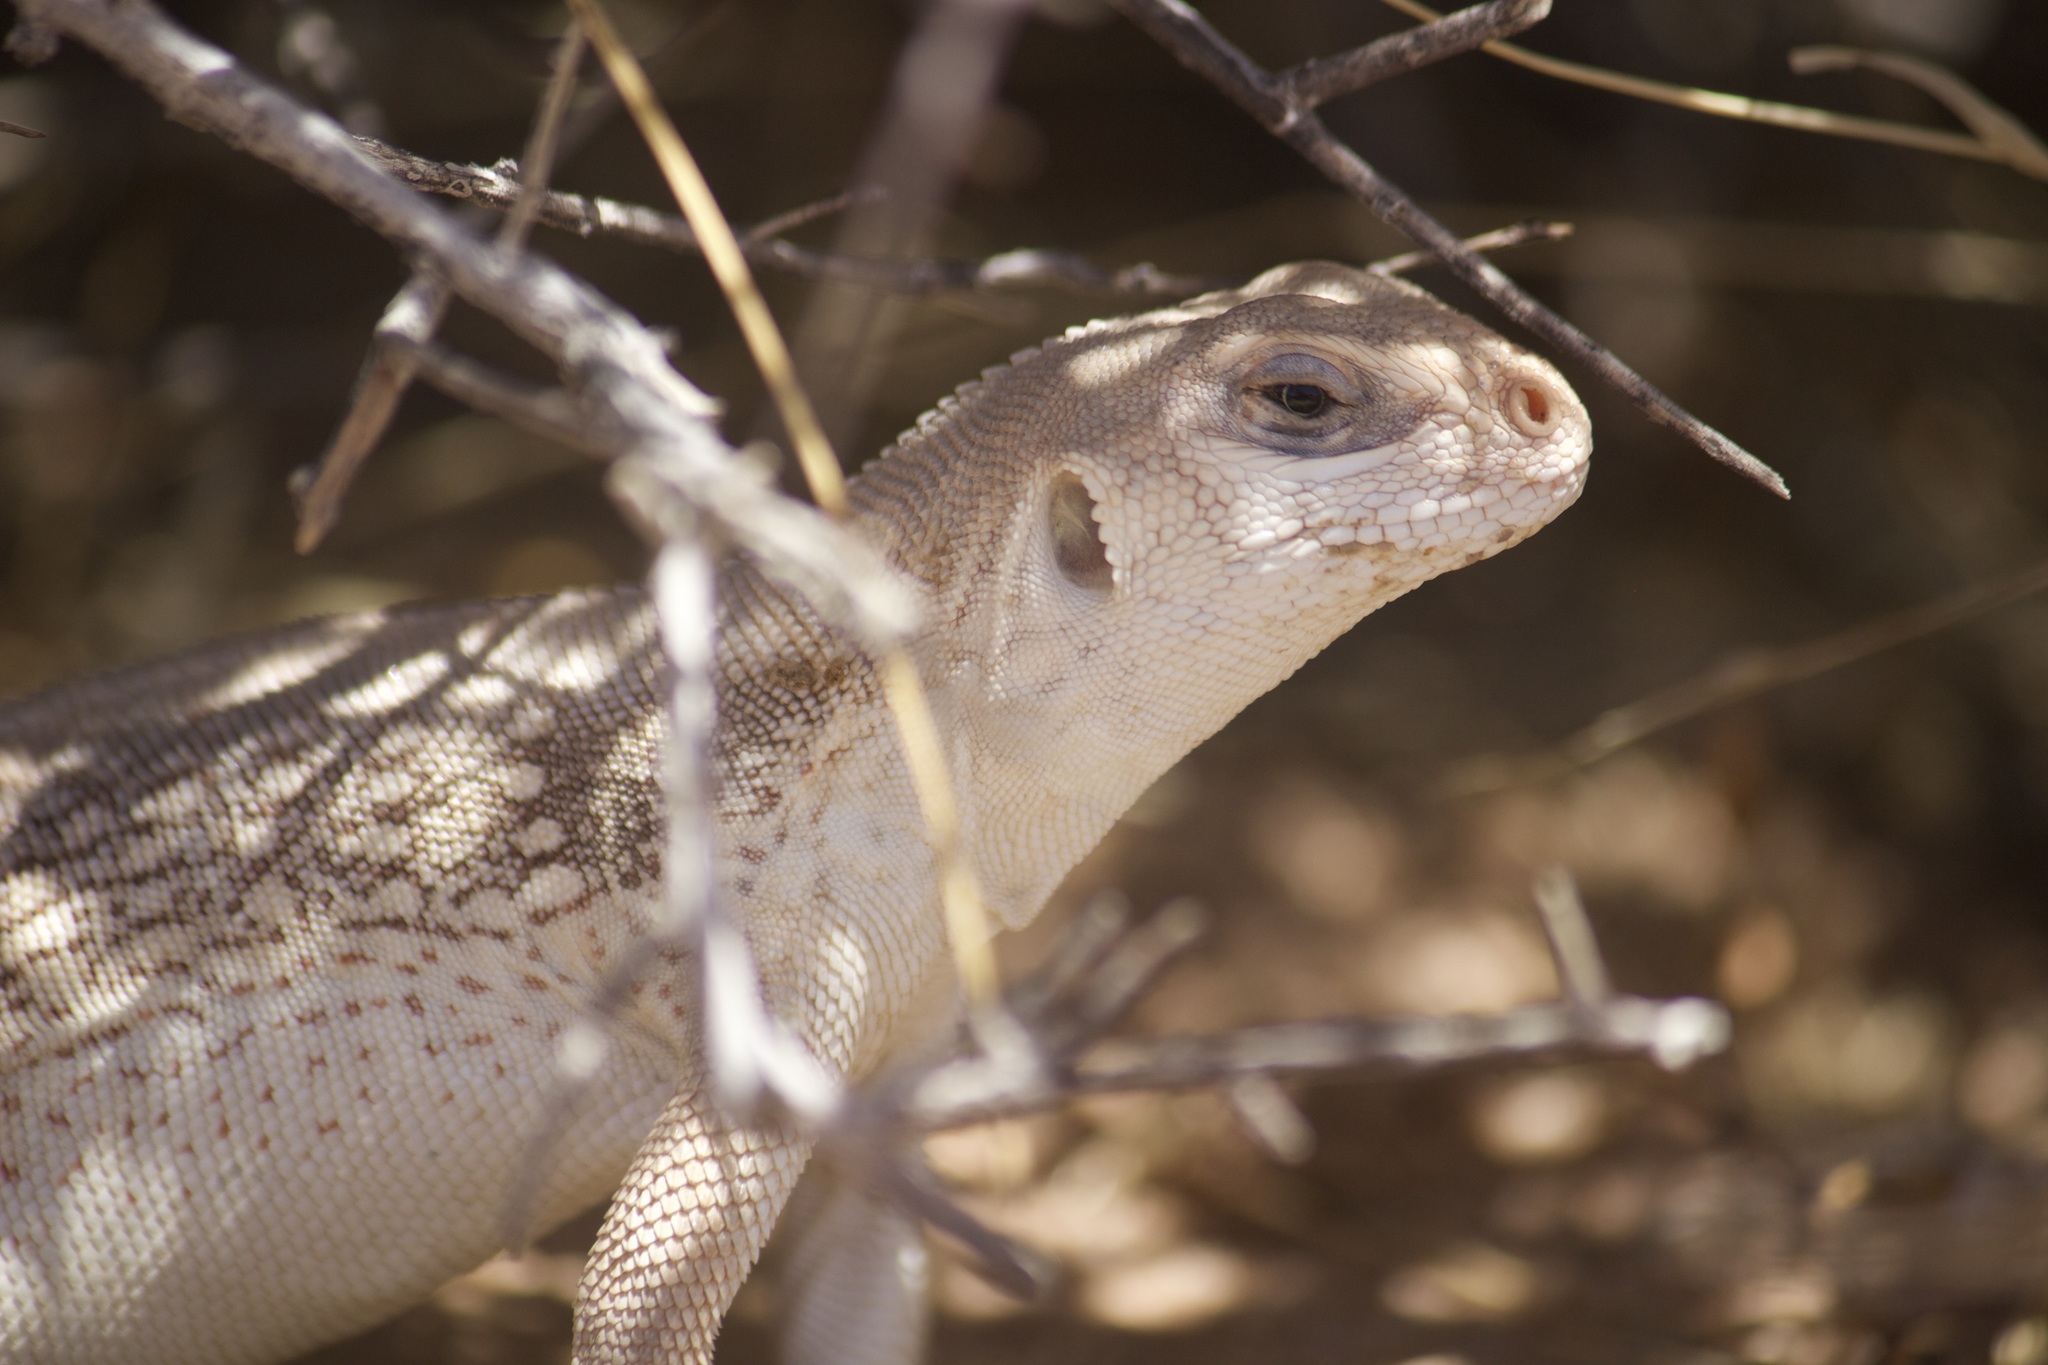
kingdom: Animalia
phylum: Chordata
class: Squamata
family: Iguanidae
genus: Dipsosaurus
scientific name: Dipsosaurus dorsalis
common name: Desert iguana
